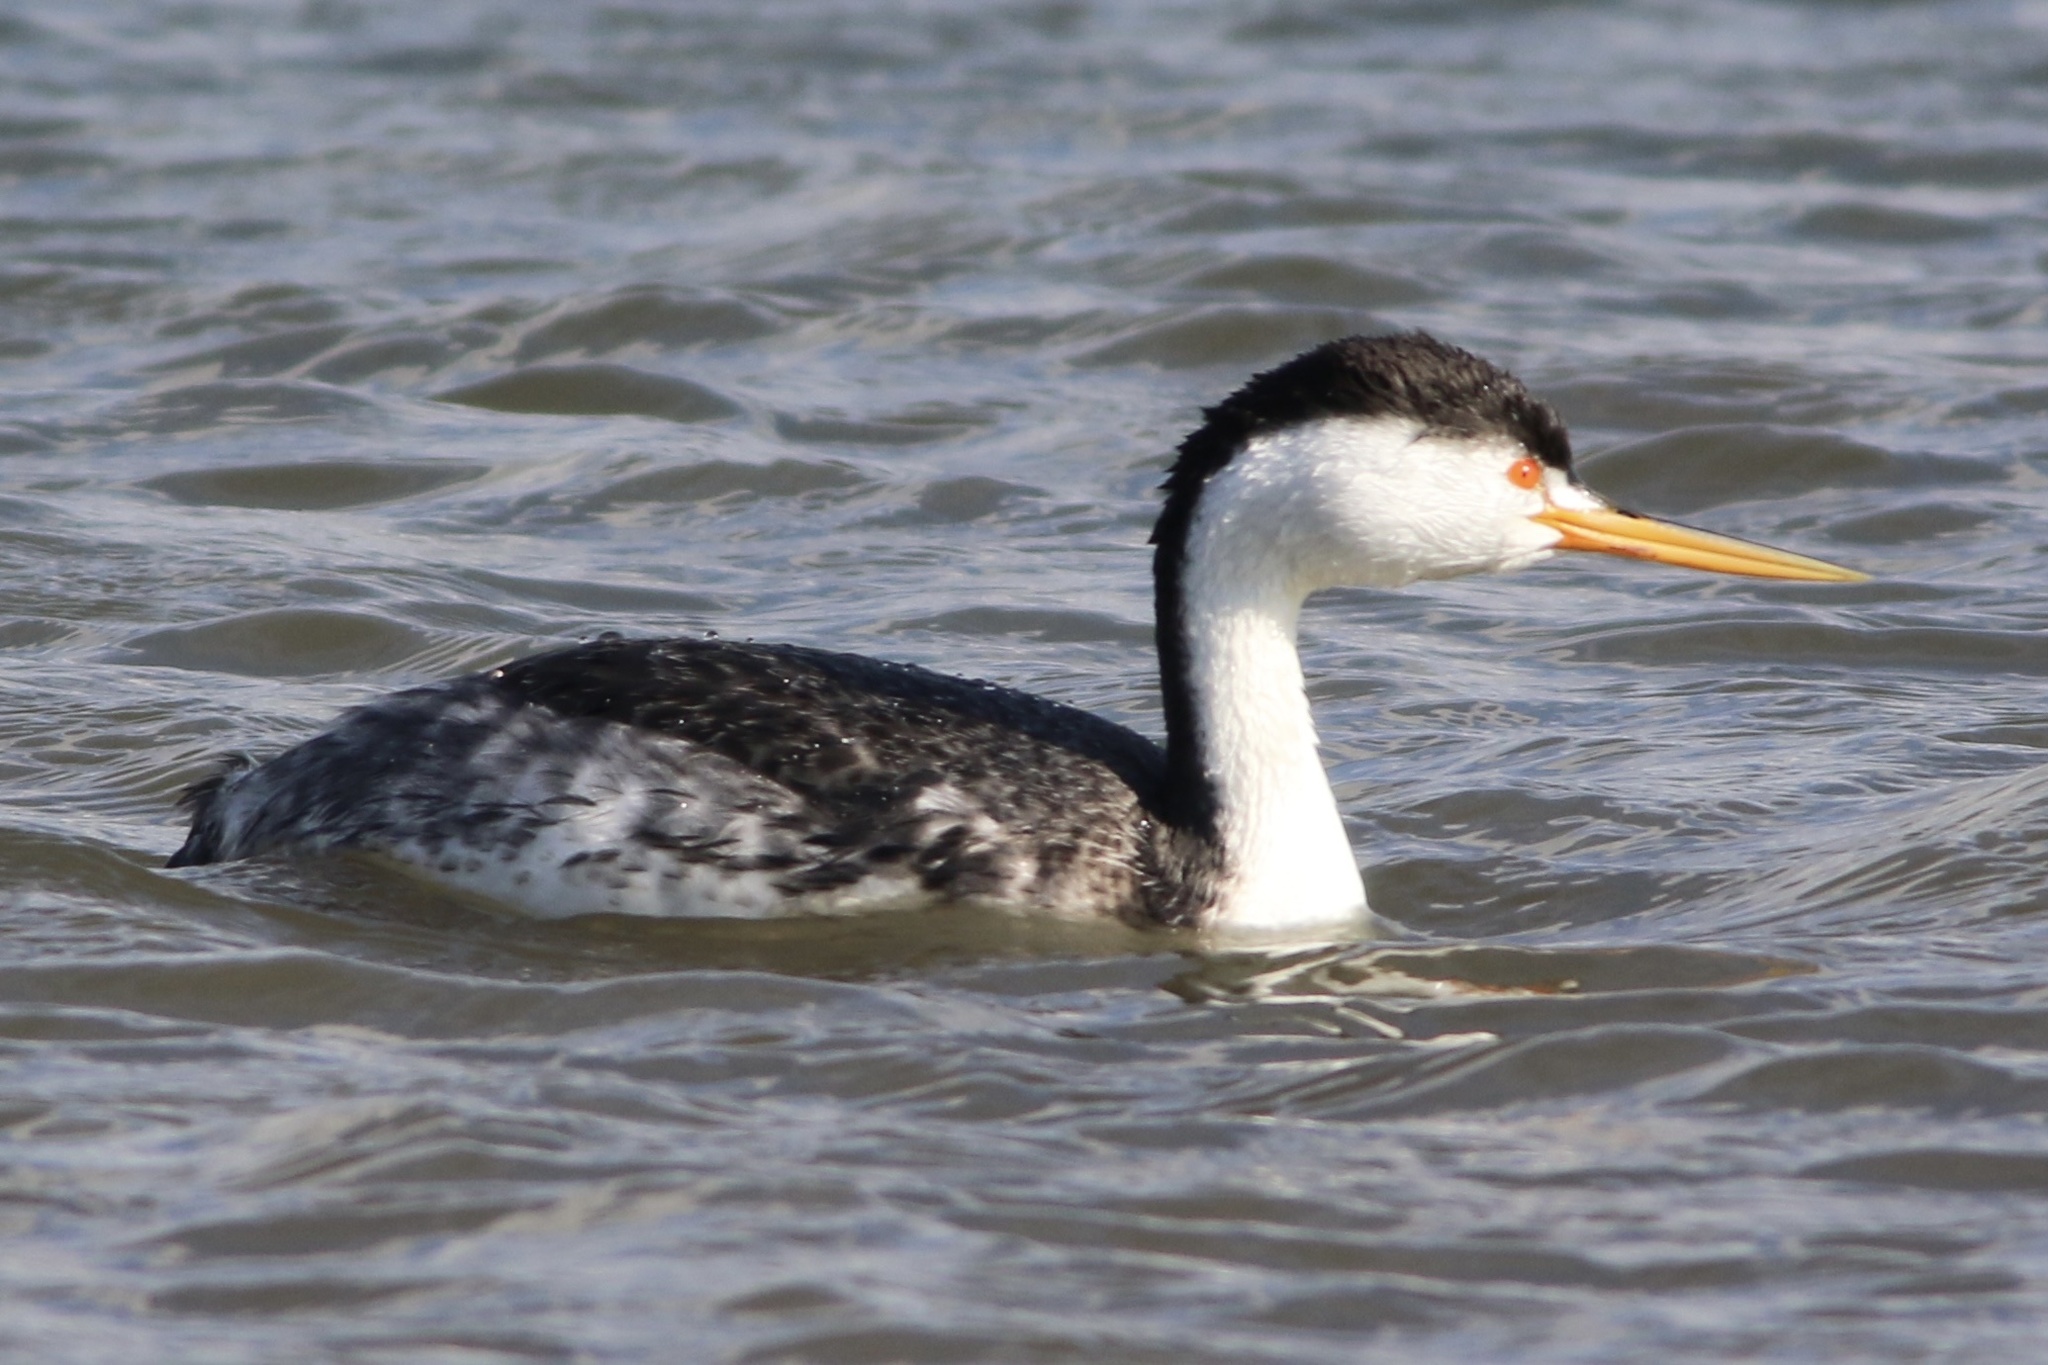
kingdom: Animalia
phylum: Chordata
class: Aves
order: Podicipediformes
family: Podicipedidae
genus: Aechmophorus
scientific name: Aechmophorus clarkii
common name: Clark's grebe
